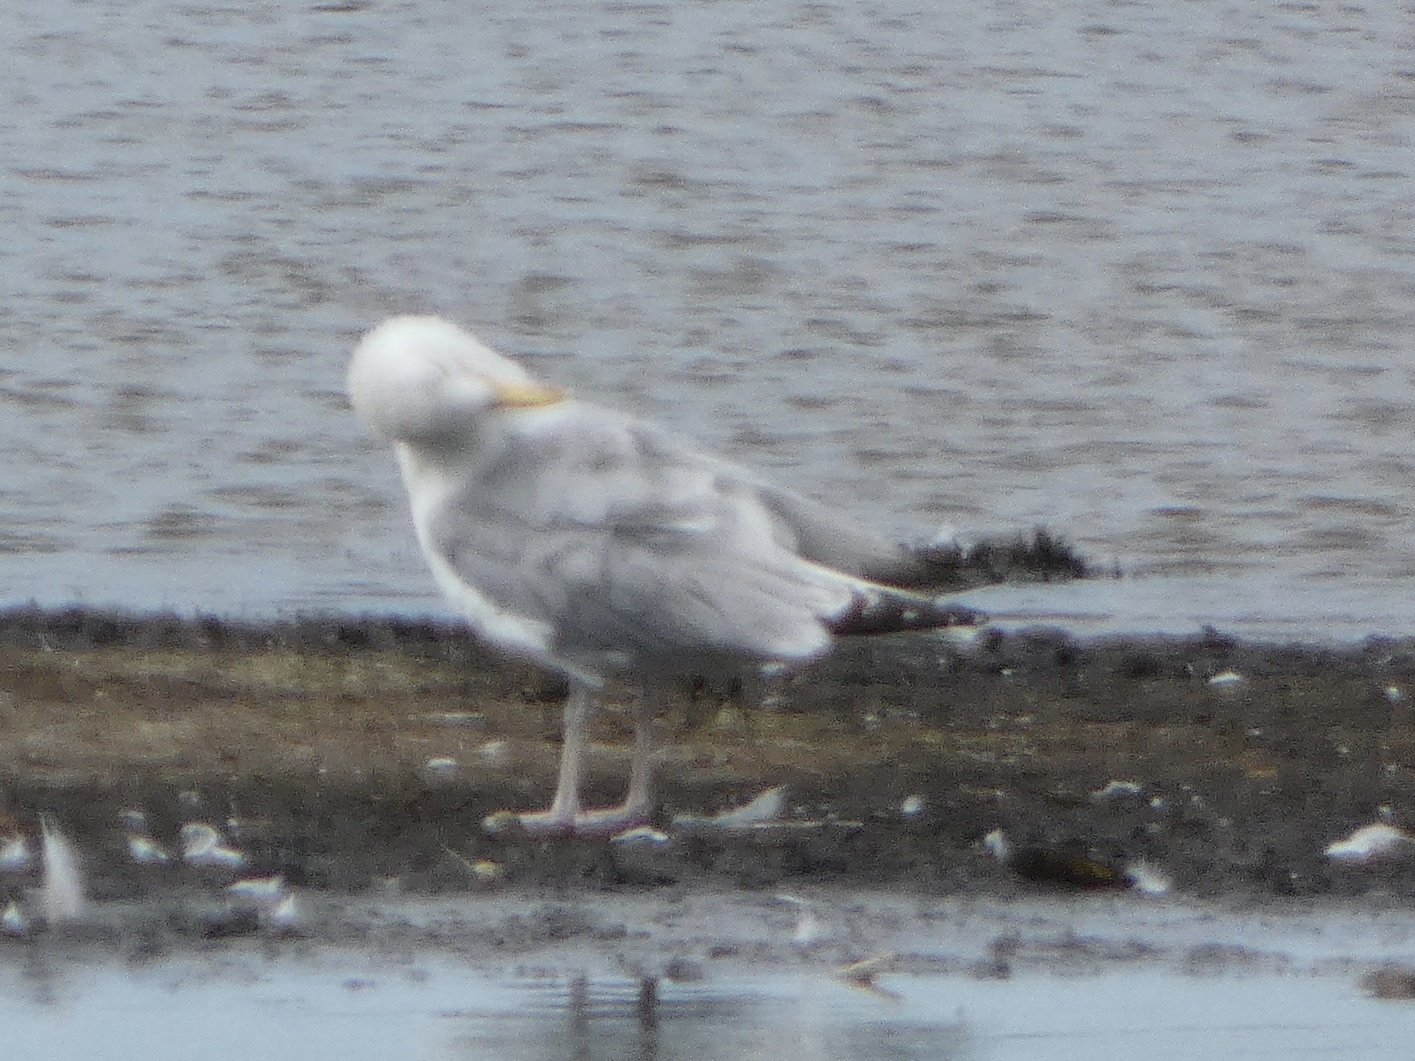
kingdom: Animalia
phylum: Chordata
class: Aves
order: Charadriiformes
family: Laridae
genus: Larus
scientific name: Larus argentatus
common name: Herring gull
